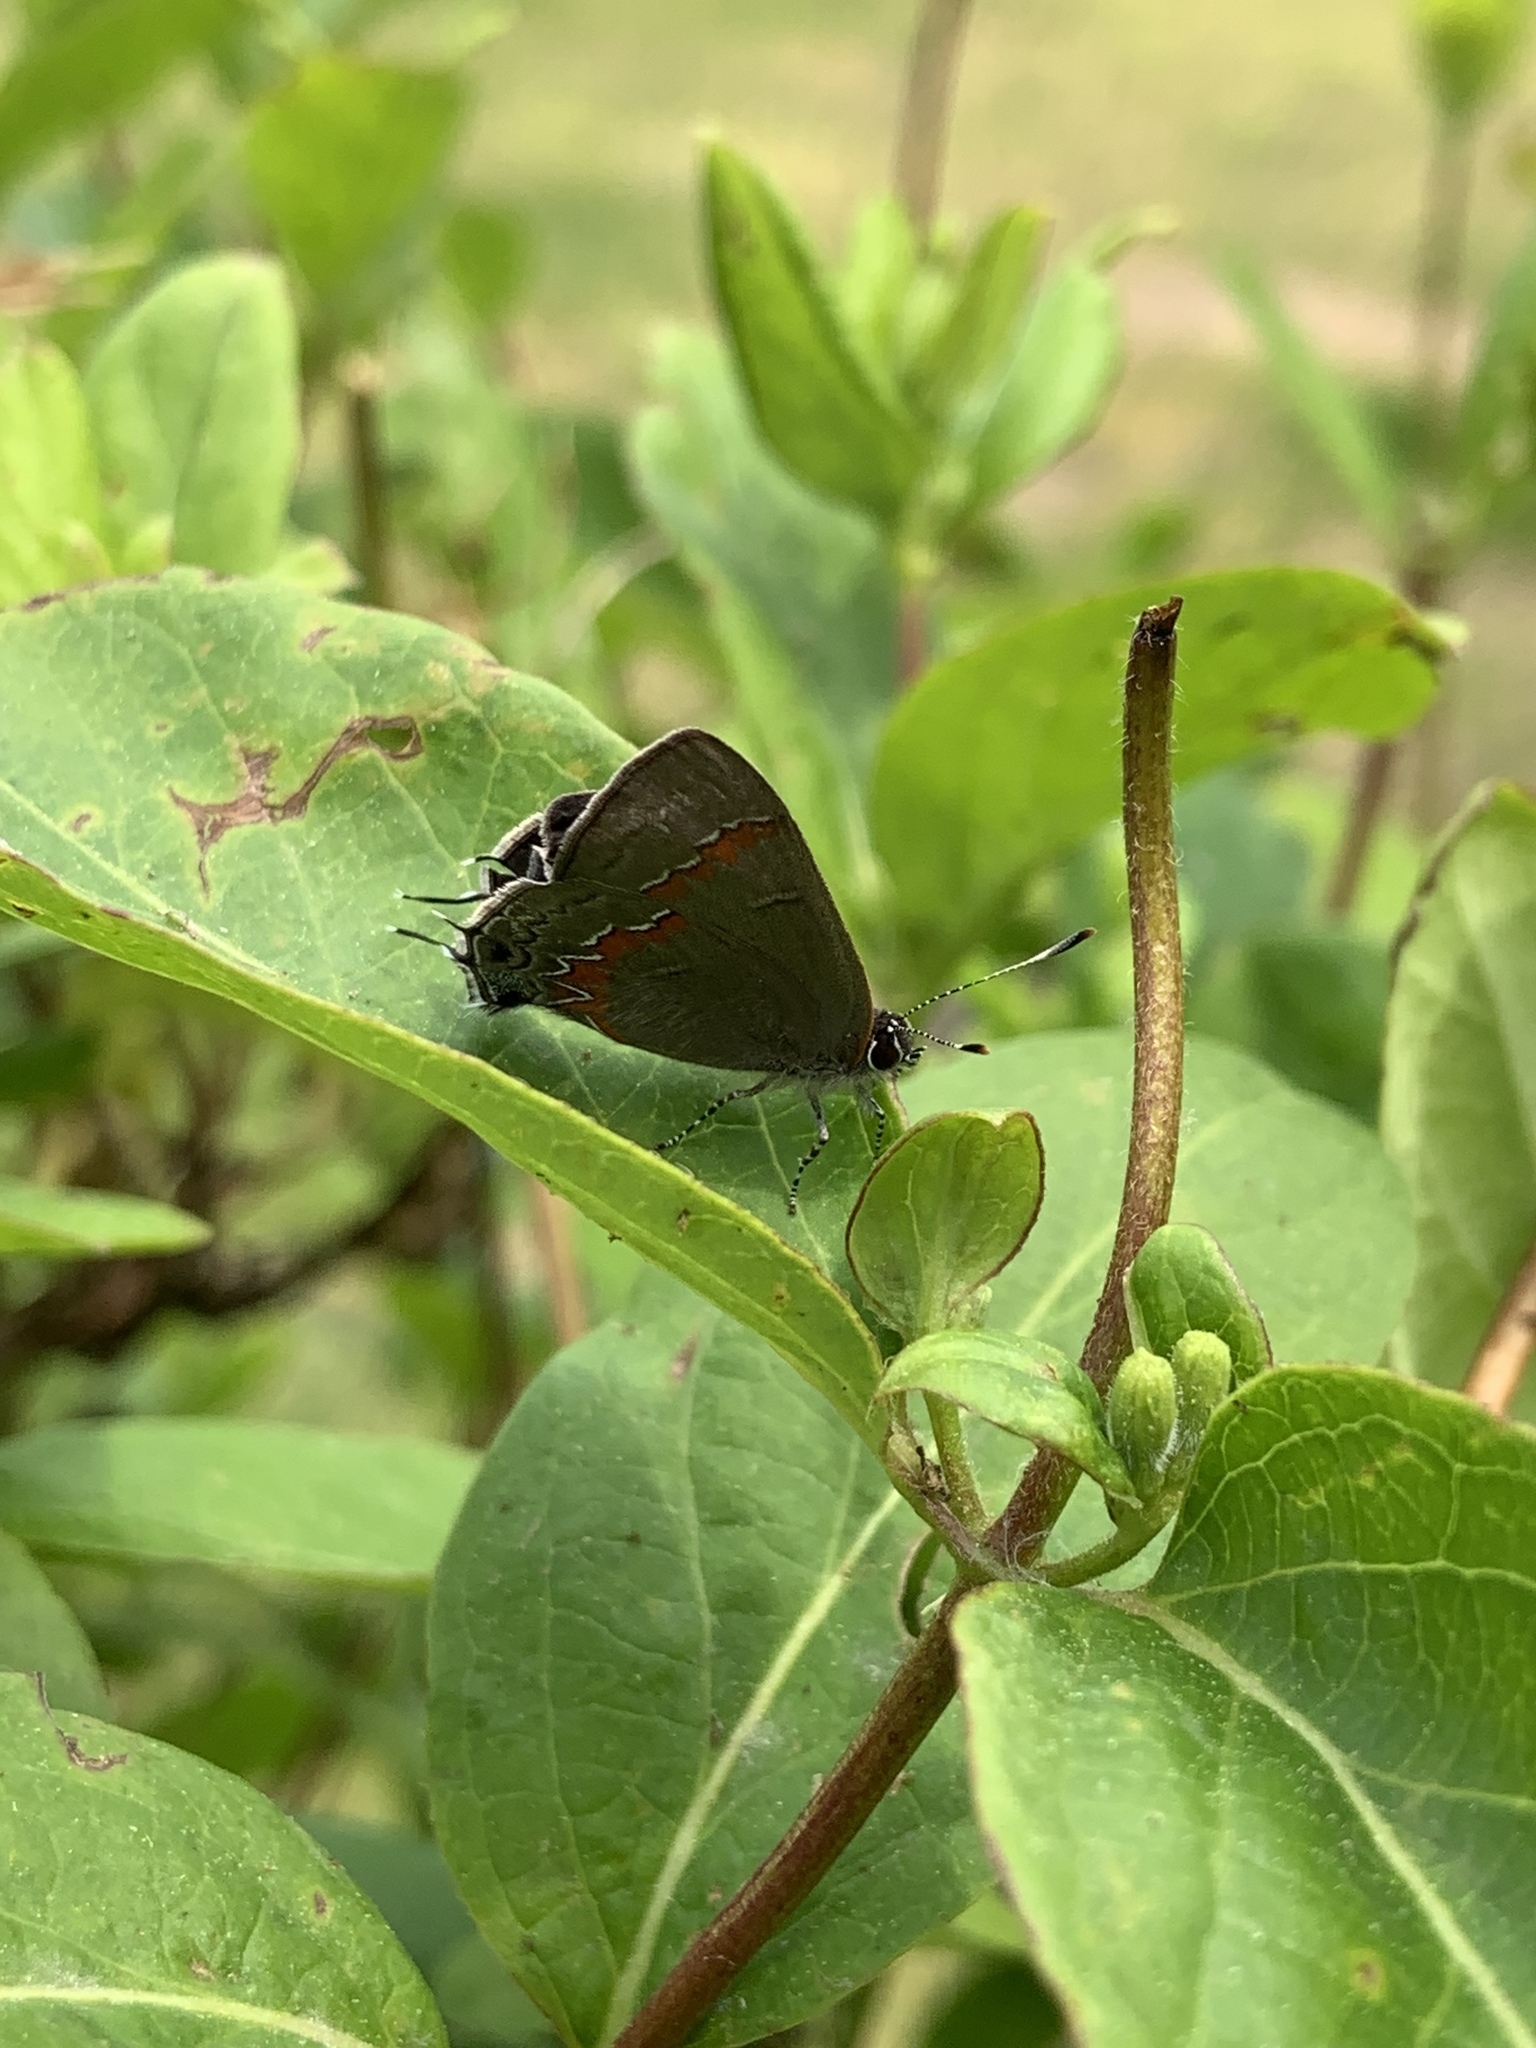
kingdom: Animalia
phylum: Arthropoda
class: Insecta
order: Lepidoptera
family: Lycaenidae
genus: Calycopis
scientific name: Calycopis cecrops
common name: Red-banded hairstreak
